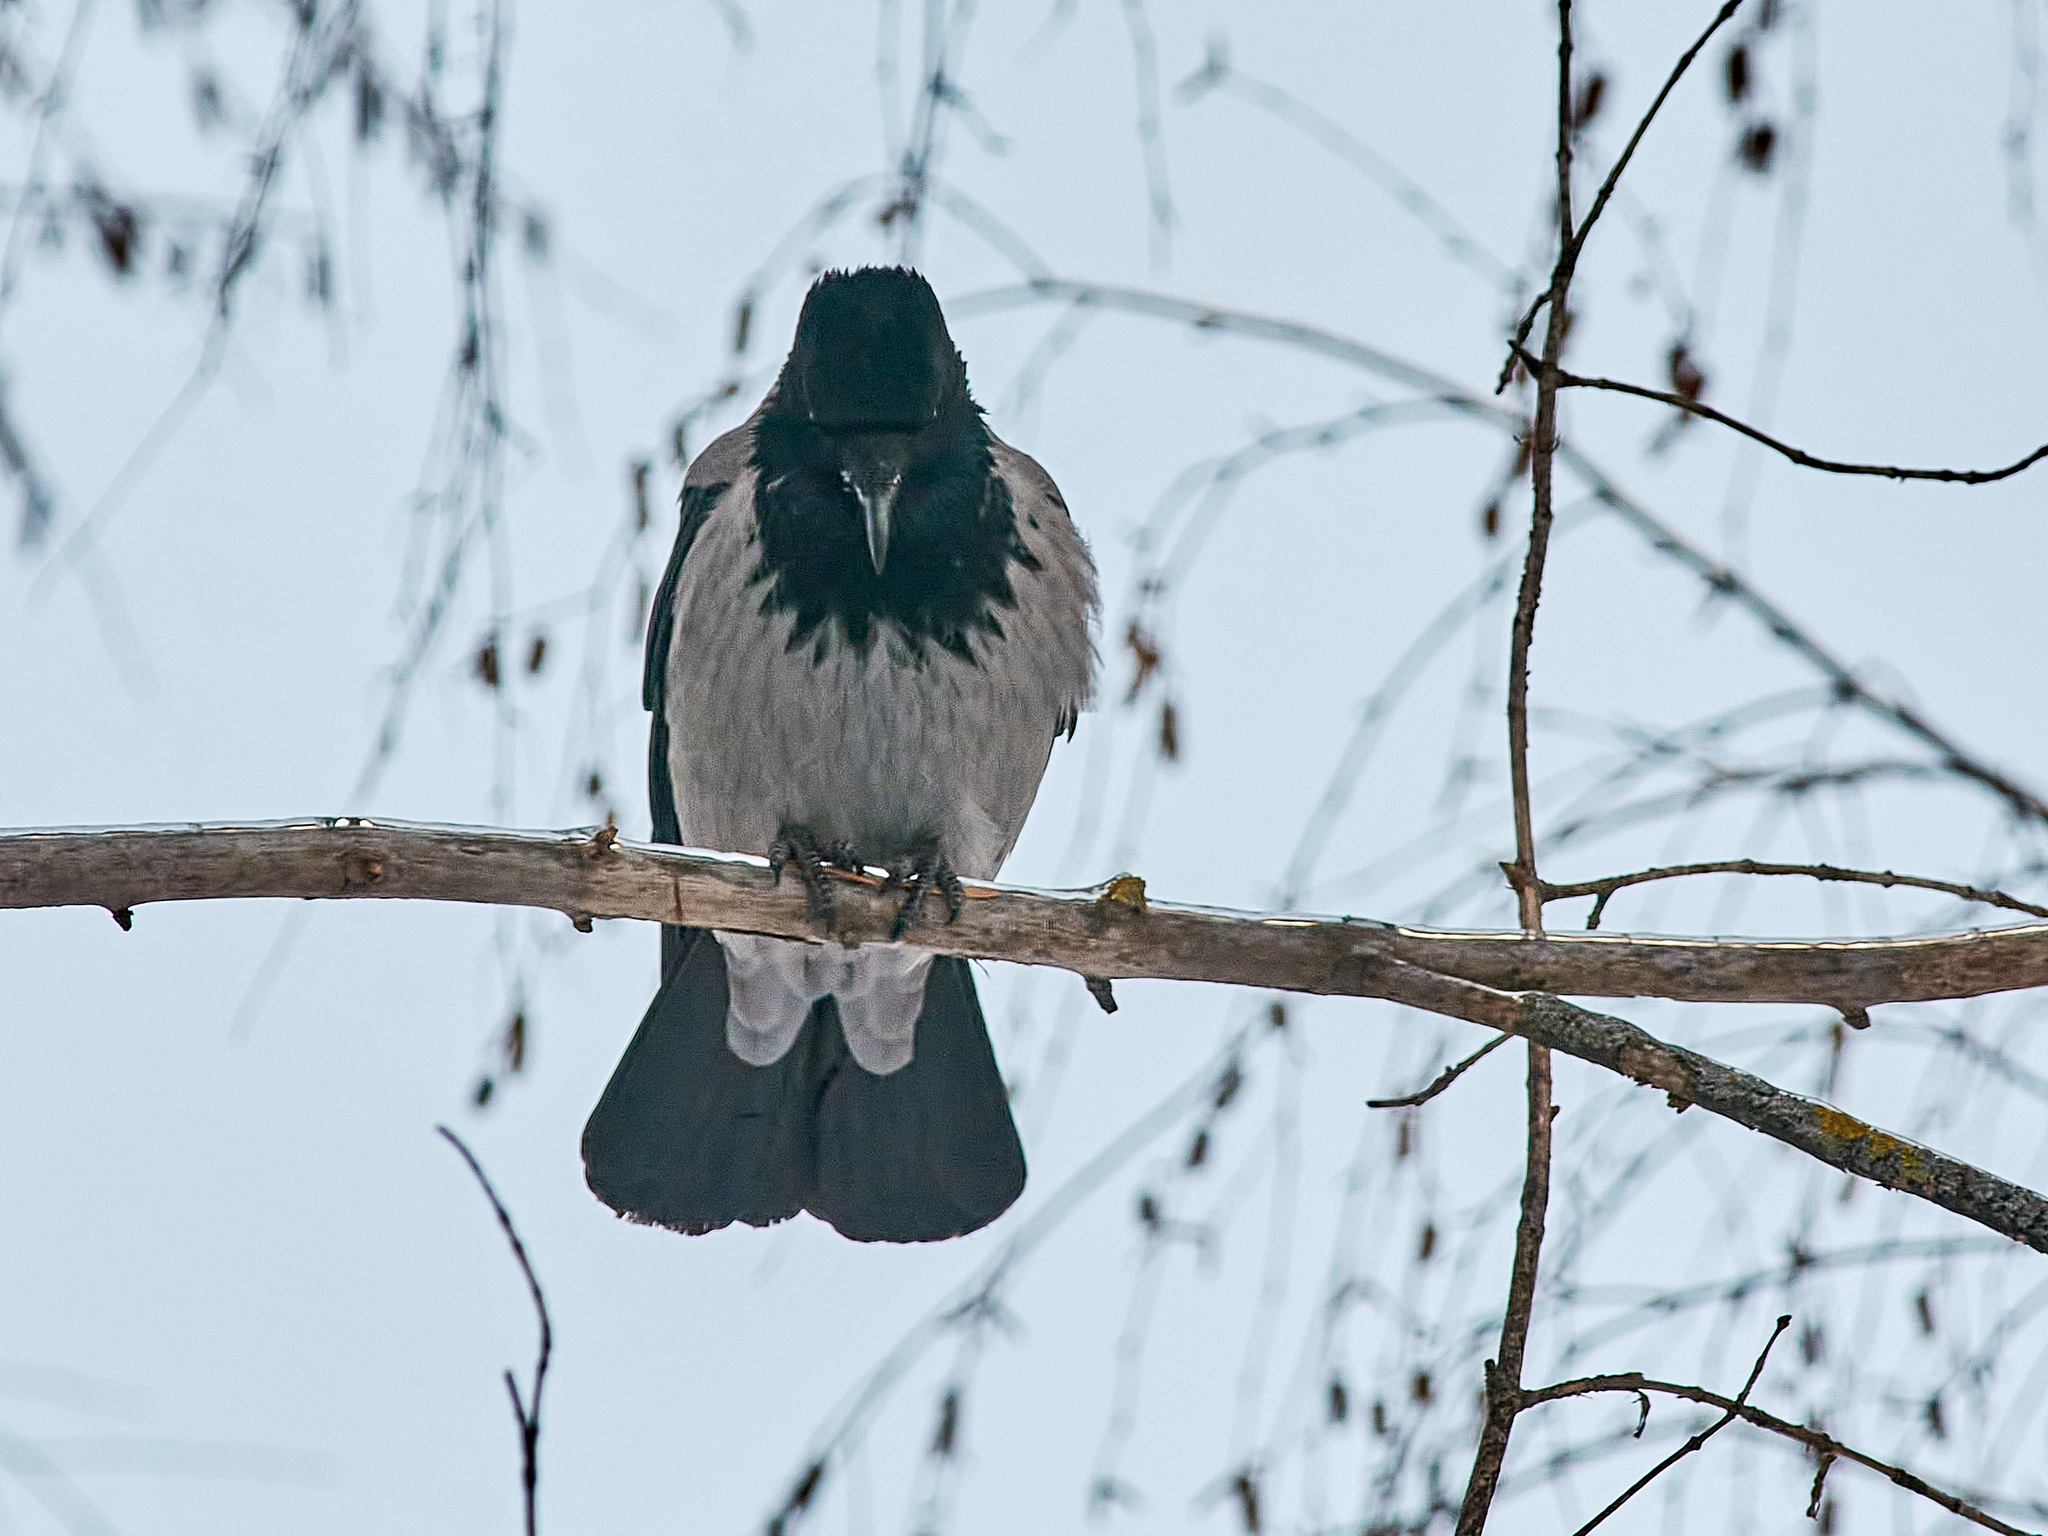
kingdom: Animalia
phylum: Chordata
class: Aves
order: Passeriformes
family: Corvidae
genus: Corvus
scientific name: Corvus cornix
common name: Hooded crow
